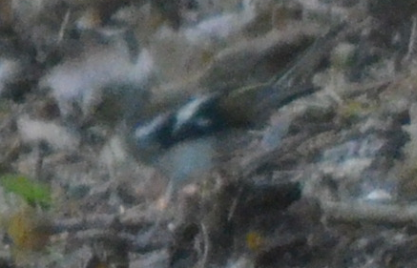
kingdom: Animalia
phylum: Chordata
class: Aves
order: Passeriformes
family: Fringillidae
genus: Fringilla
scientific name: Fringilla coelebs
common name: Common chaffinch
